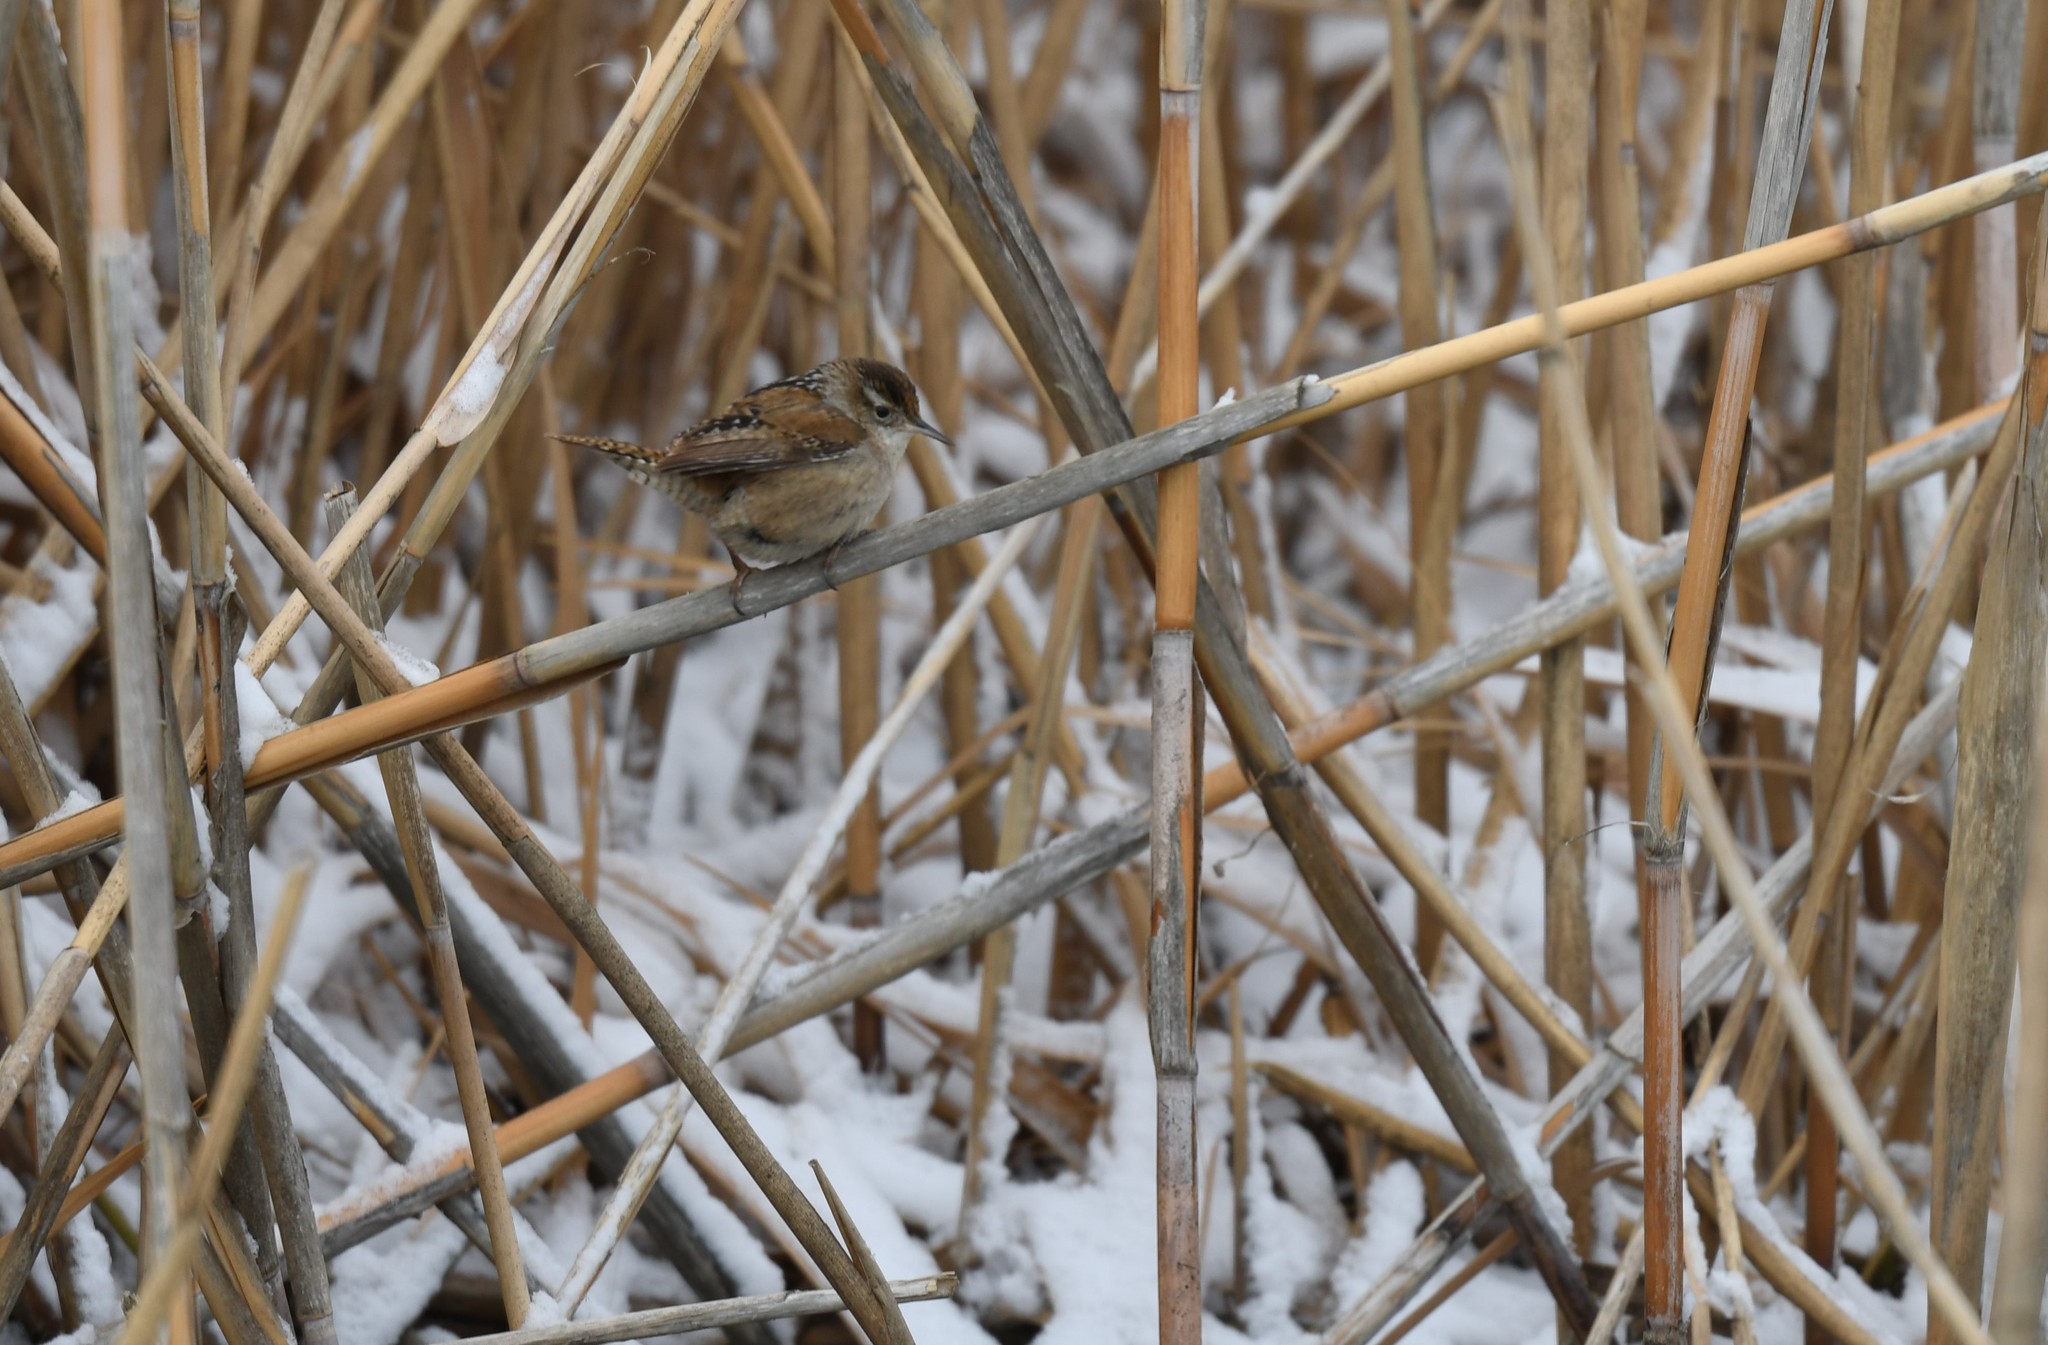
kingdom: Animalia
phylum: Chordata
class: Aves
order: Passeriformes
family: Troglodytidae
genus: Cistothorus
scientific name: Cistothorus palustris
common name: Marsh wren
